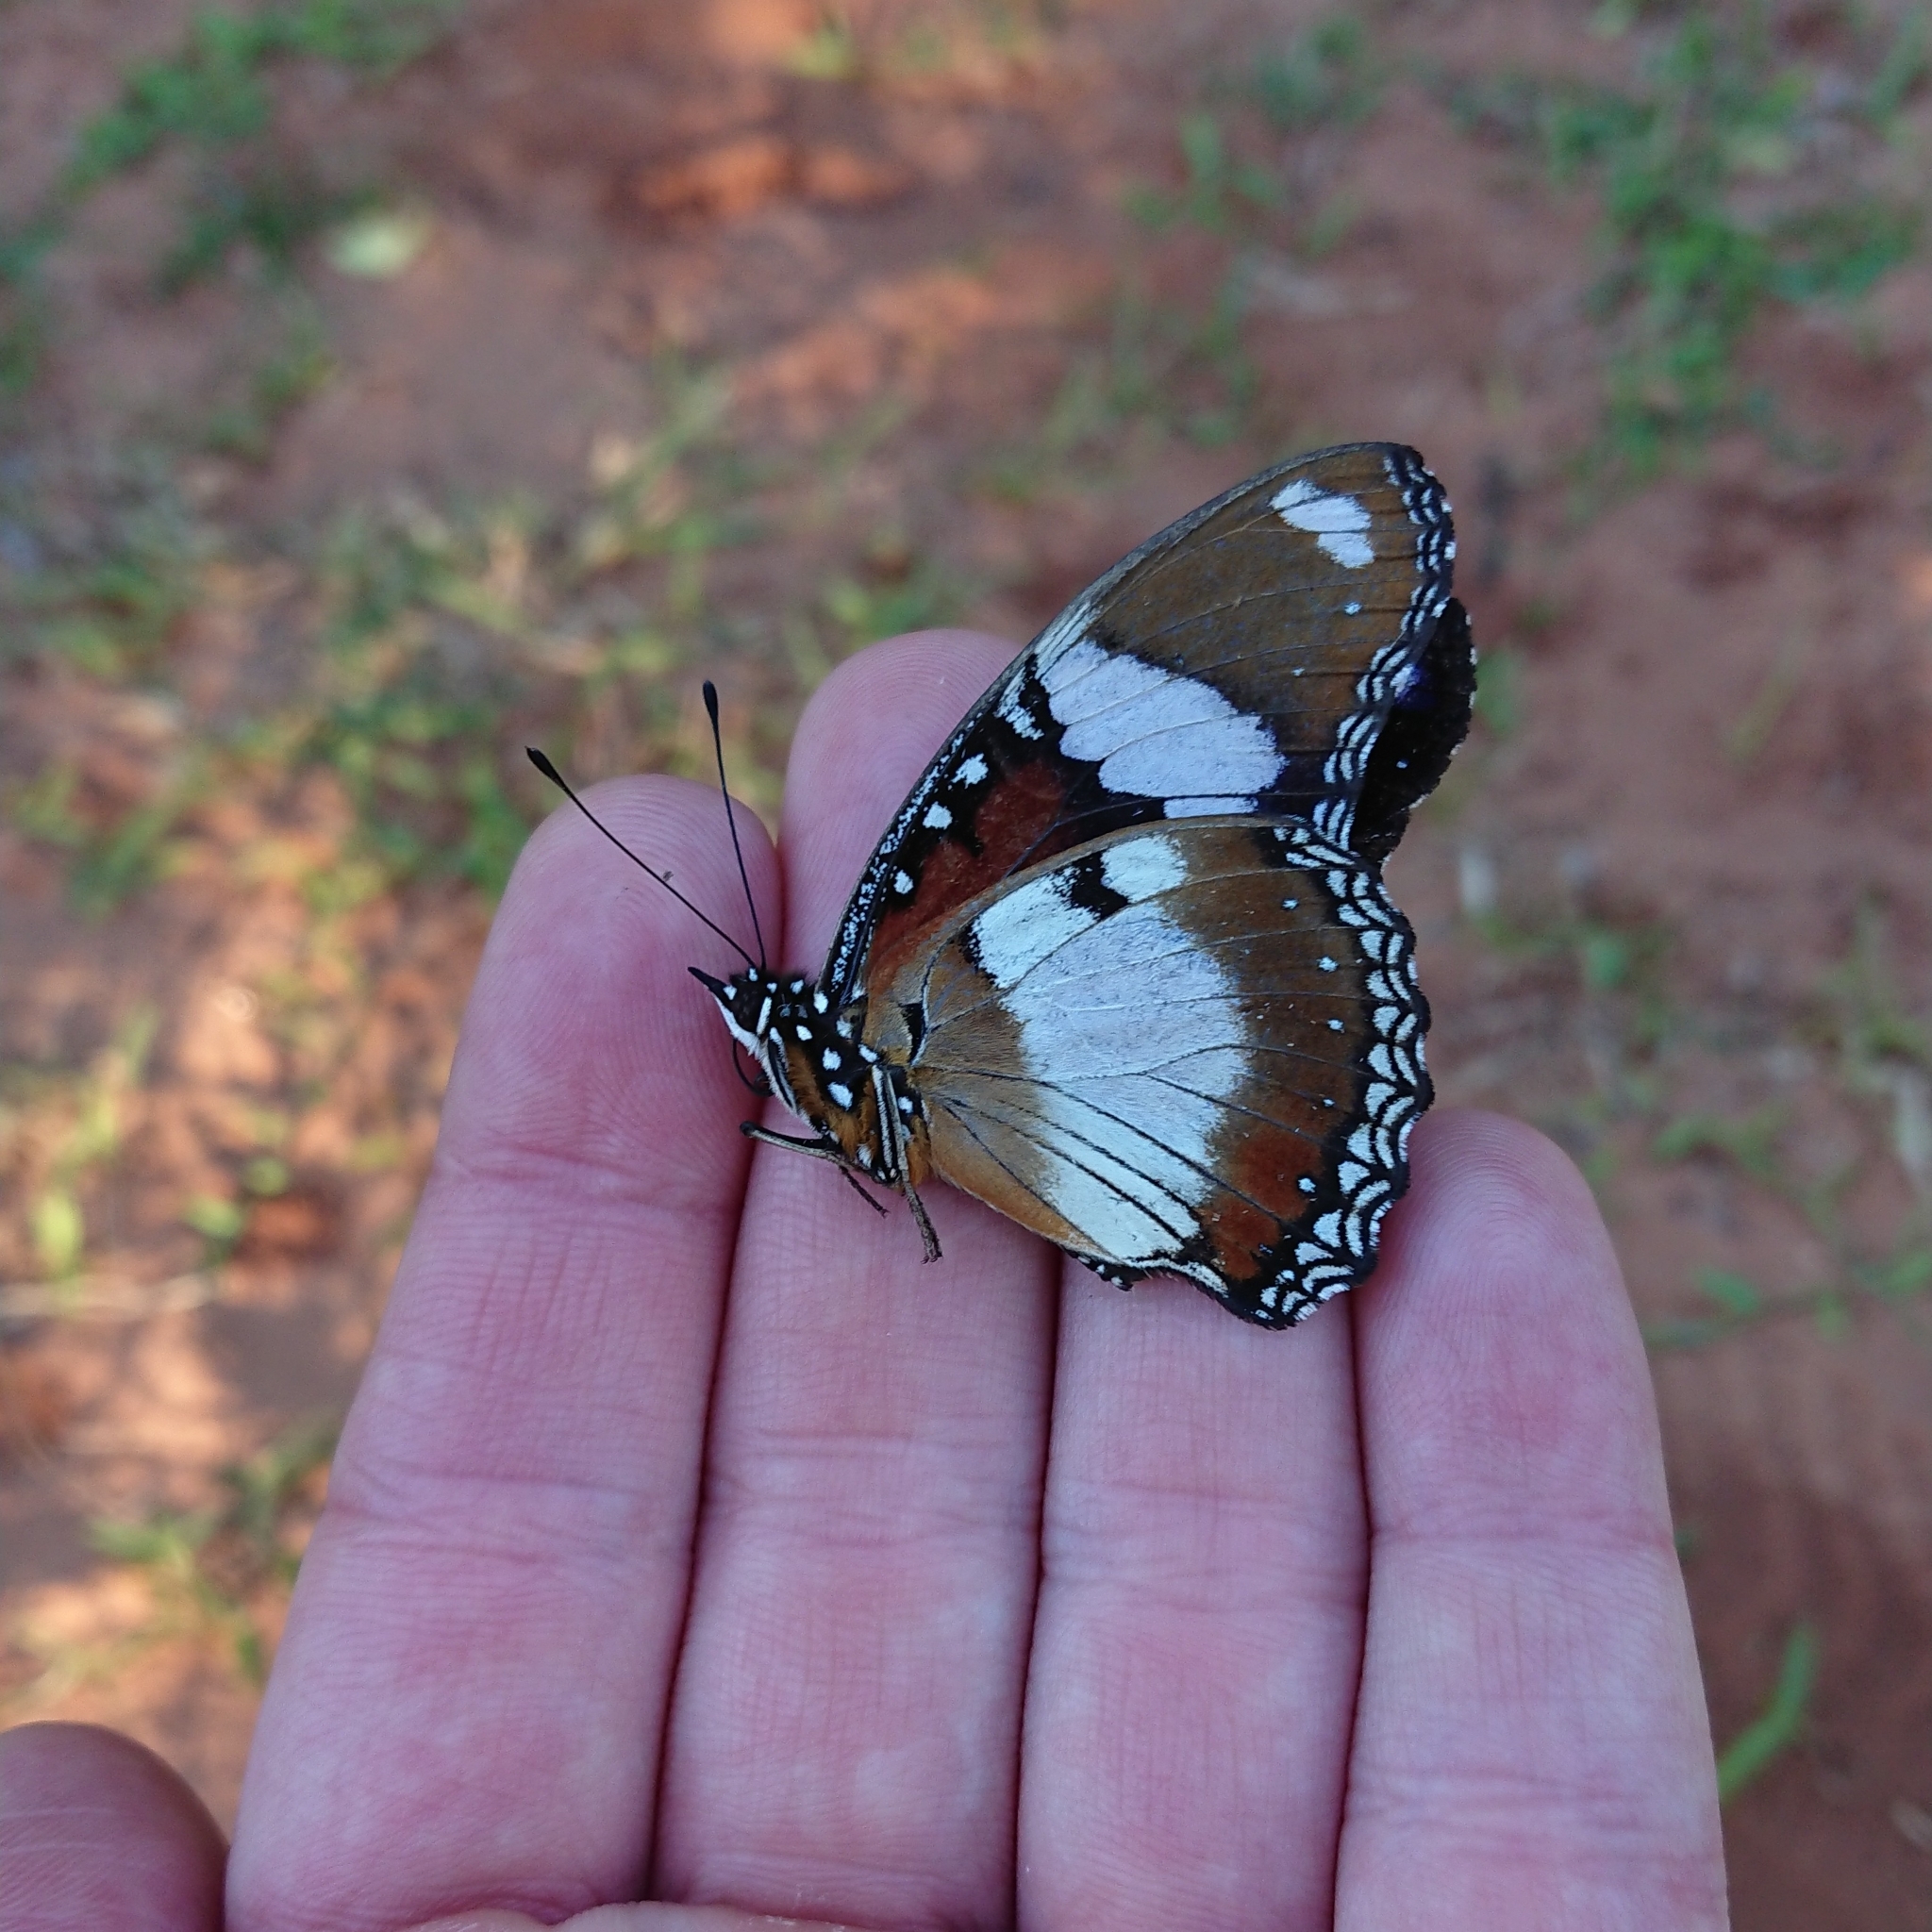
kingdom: Animalia
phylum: Arthropoda
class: Insecta
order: Lepidoptera
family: Nymphalidae
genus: Hypolimnas
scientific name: Hypolimnas misippus
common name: False plain tiger
